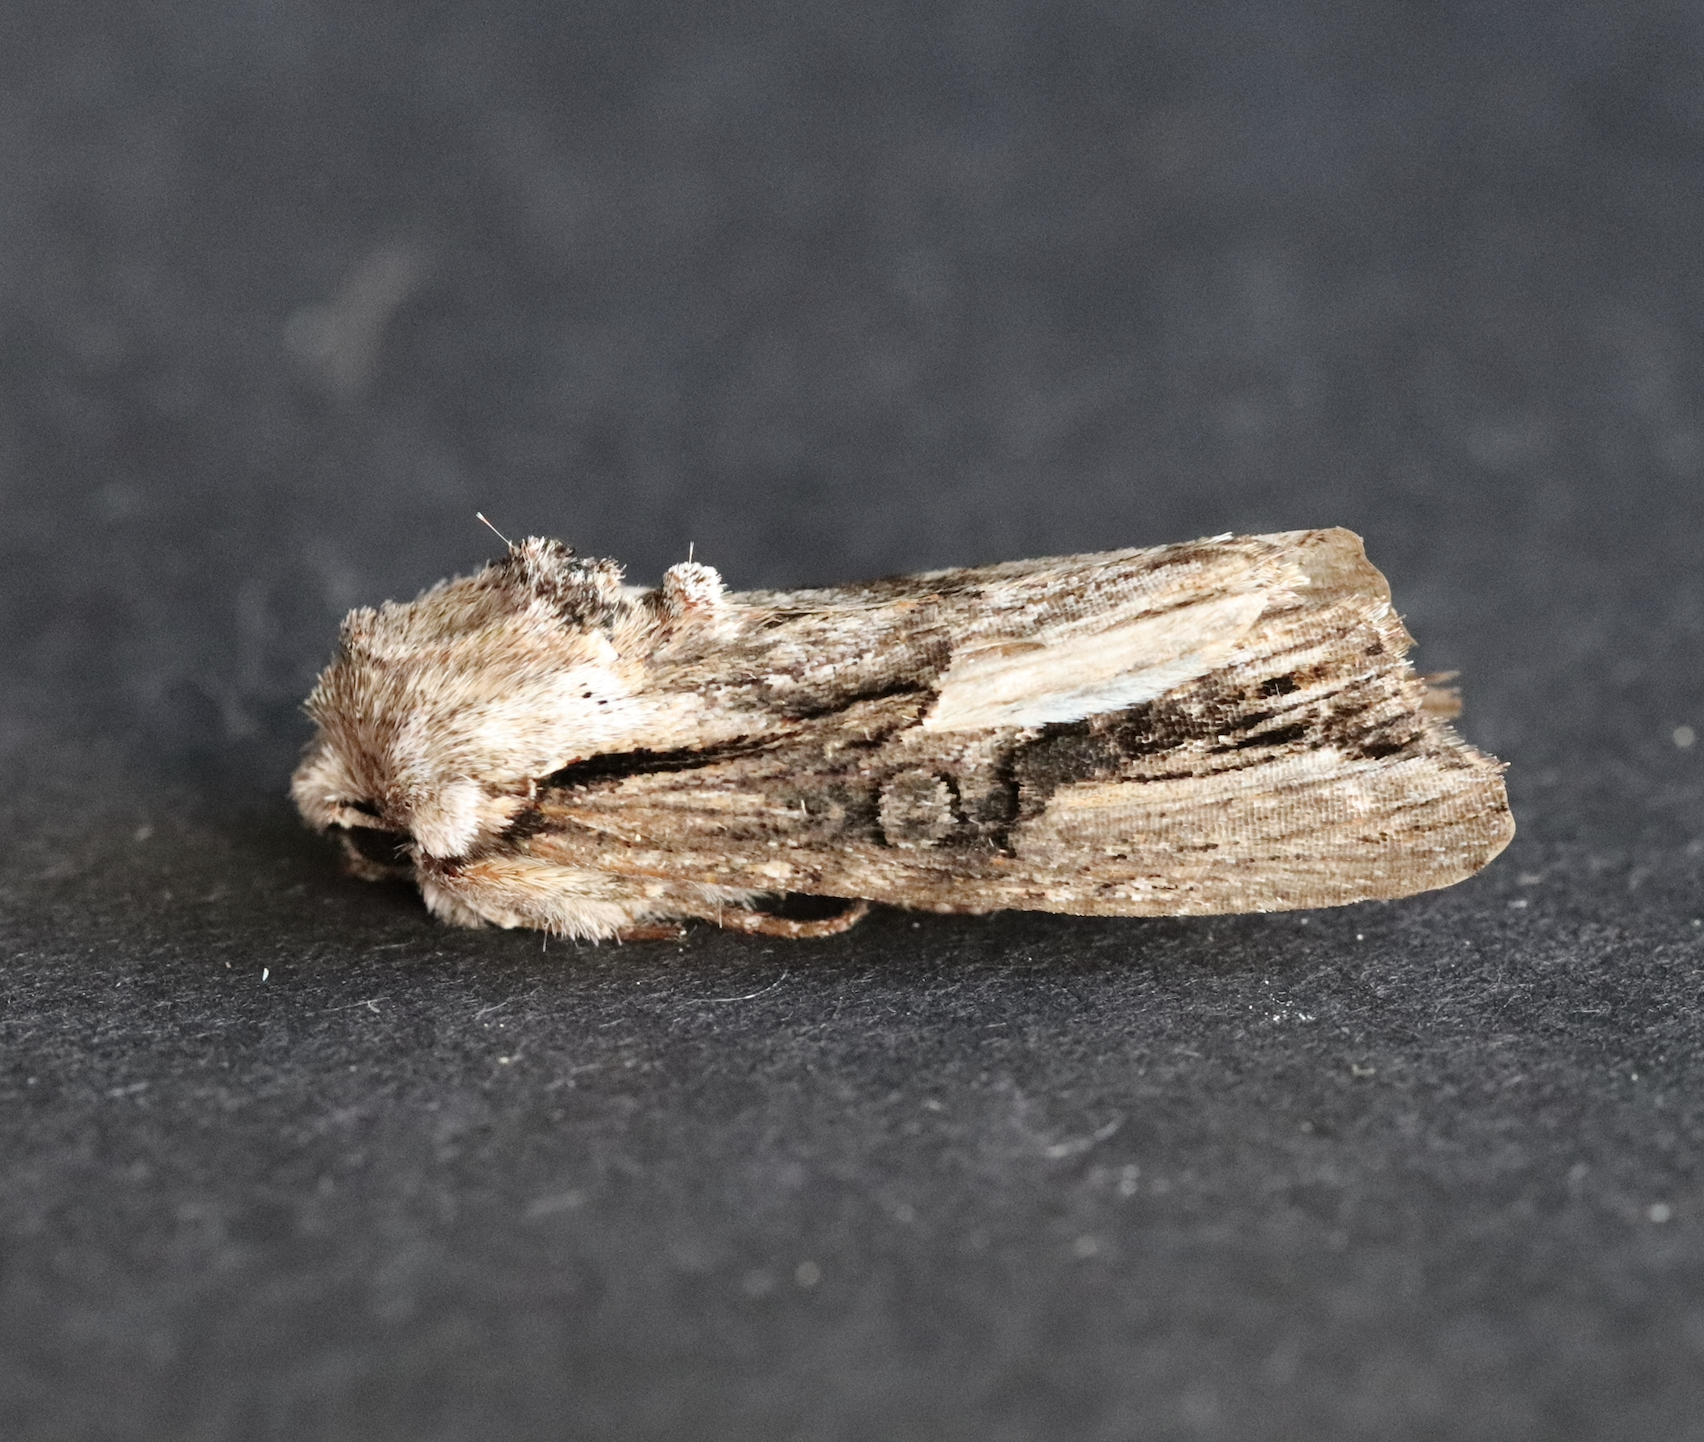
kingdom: Animalia
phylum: Arthropoda
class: Insecta
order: Lepidoptera
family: Noctuidae
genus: Egira
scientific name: Egira conspicillaris
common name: Silver cloud
